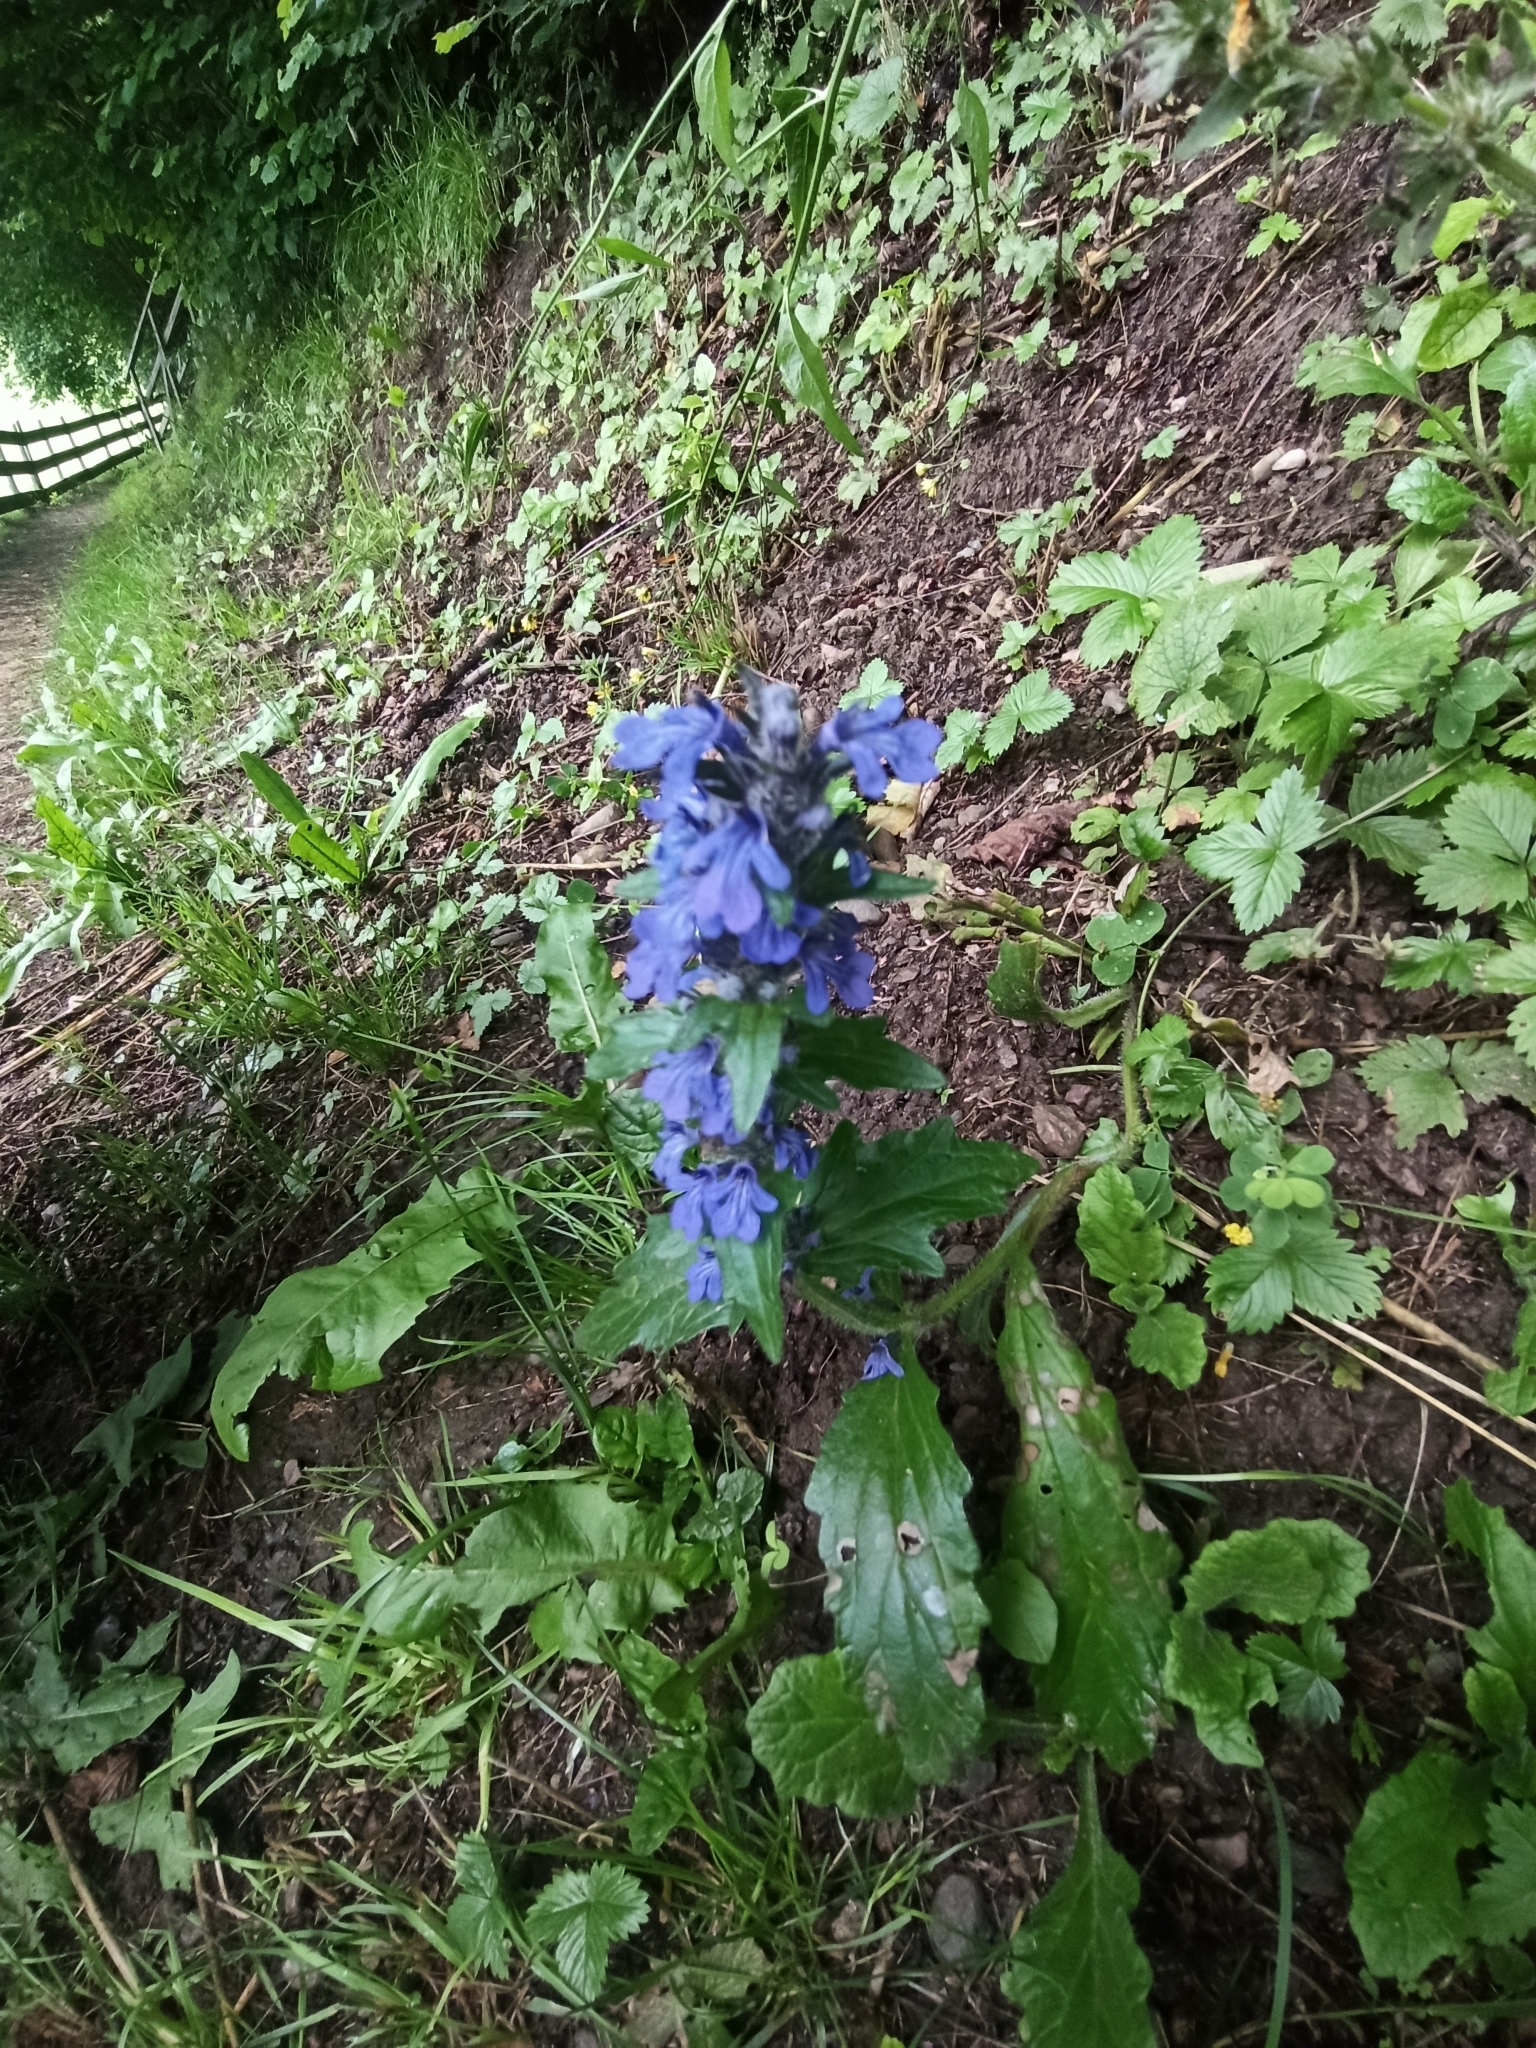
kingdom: Plantae
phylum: Tracheophyta
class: Magnoliopsida
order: Lamiales
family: Lamiaceae
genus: Ajuga
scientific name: Ajuga genevensis
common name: Blue bugle
